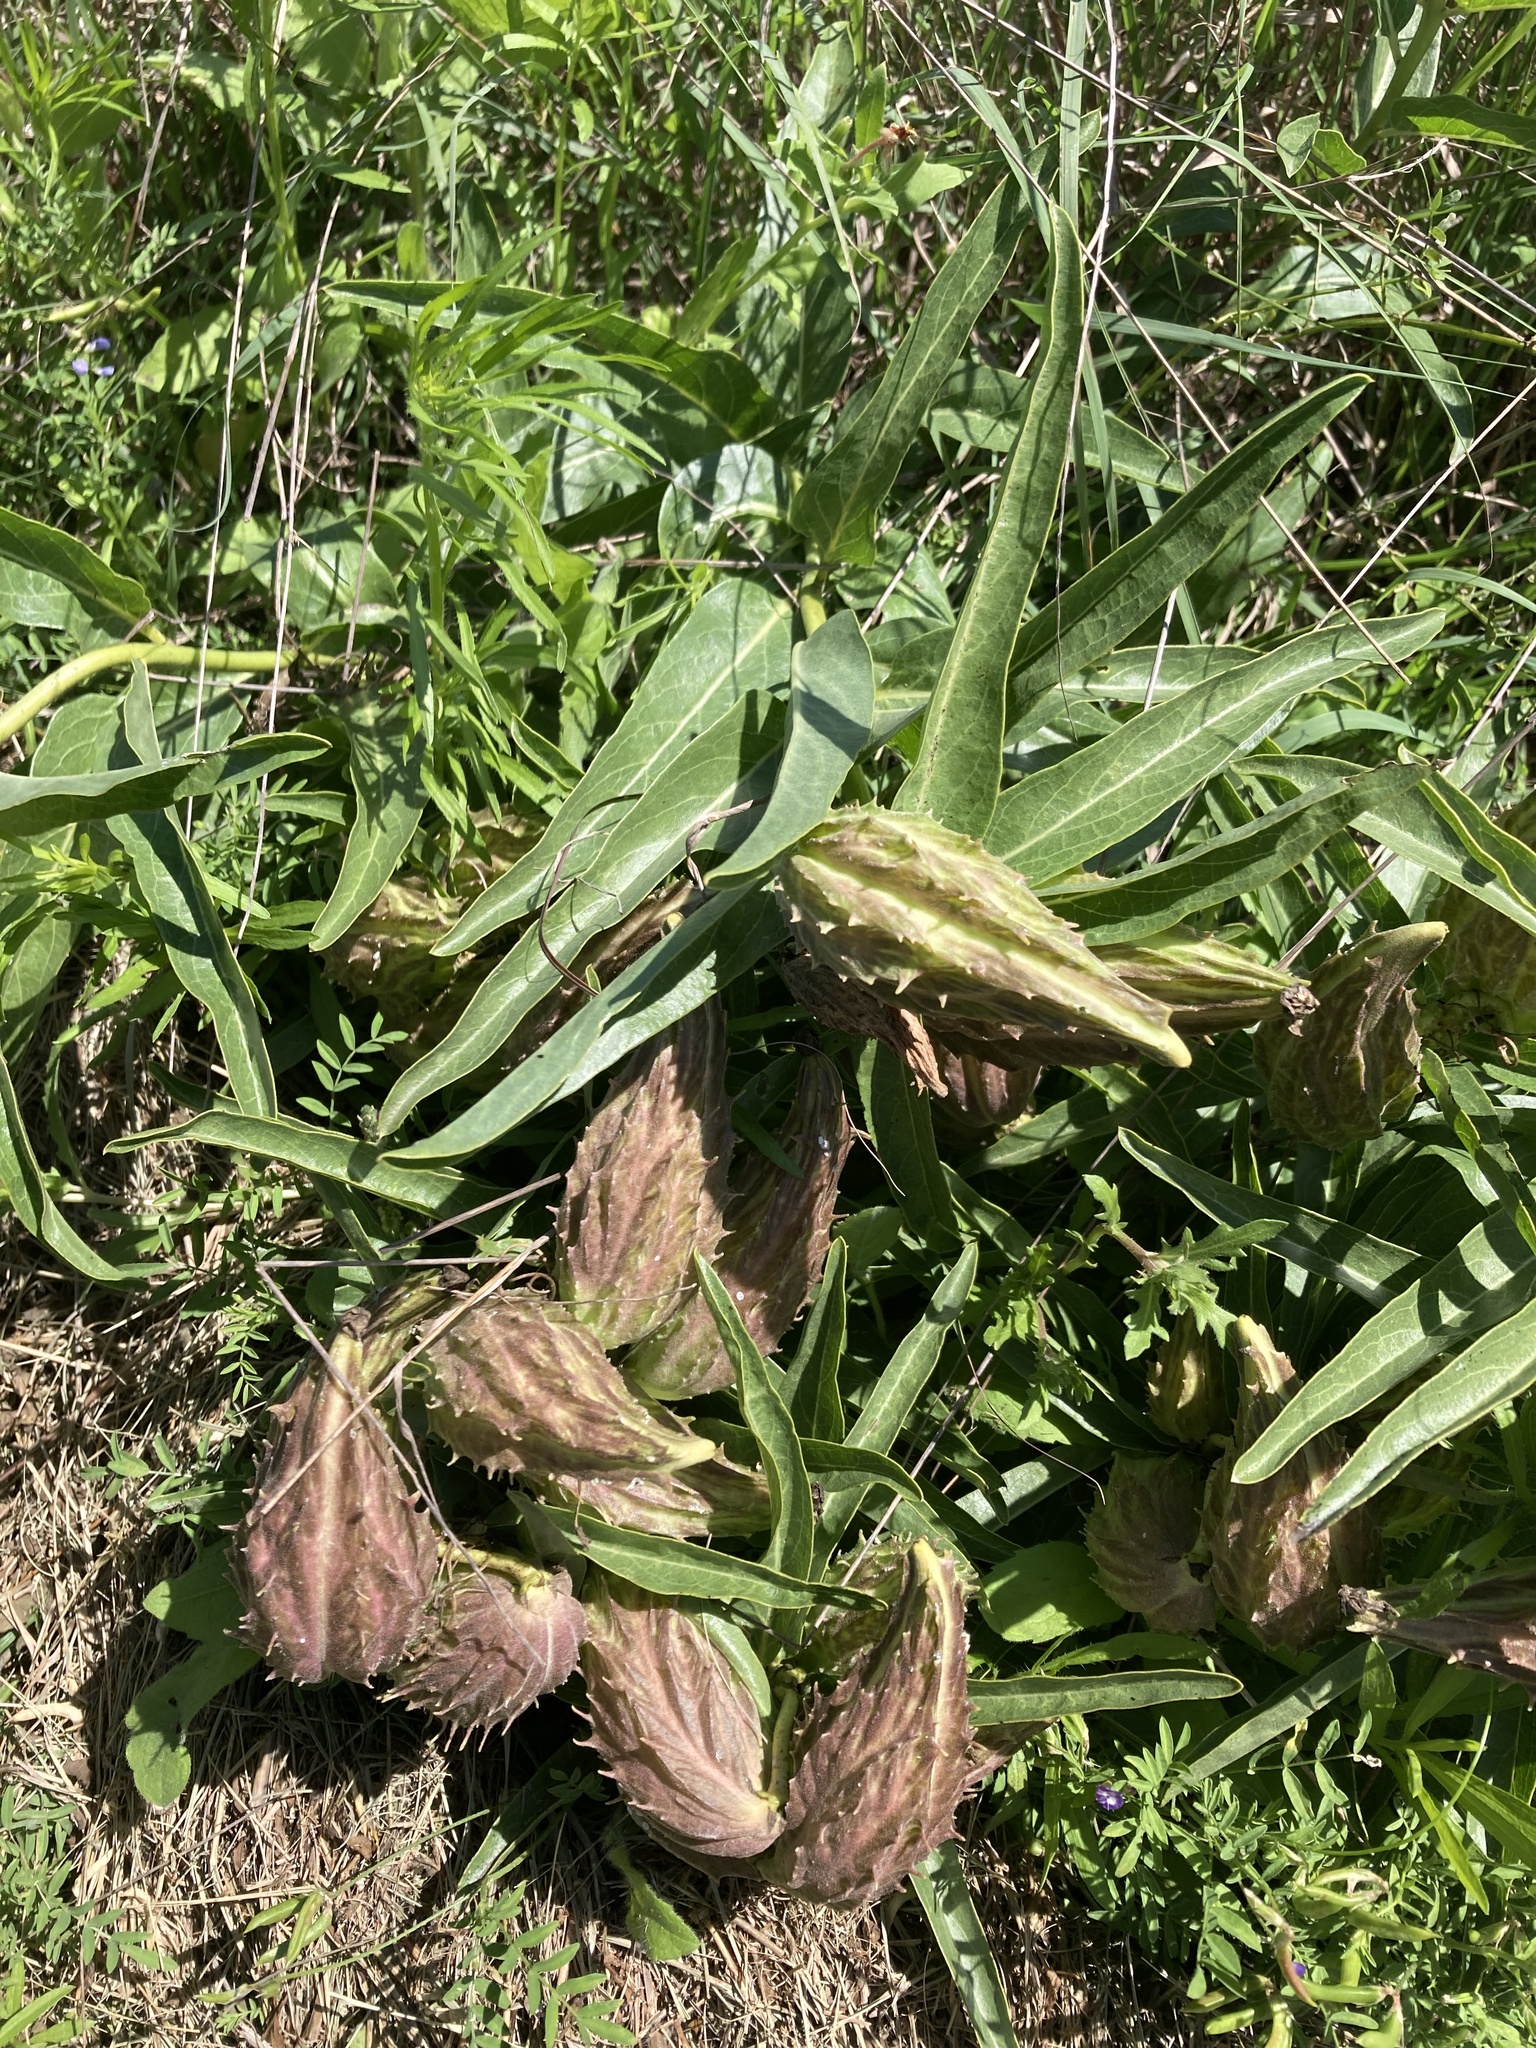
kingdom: Plantae
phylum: Tracheophyta
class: Magnoliopsida
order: Gentianales
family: Apocynaceae
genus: Asclepias
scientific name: Asclepias asperula
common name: Antelope horns
